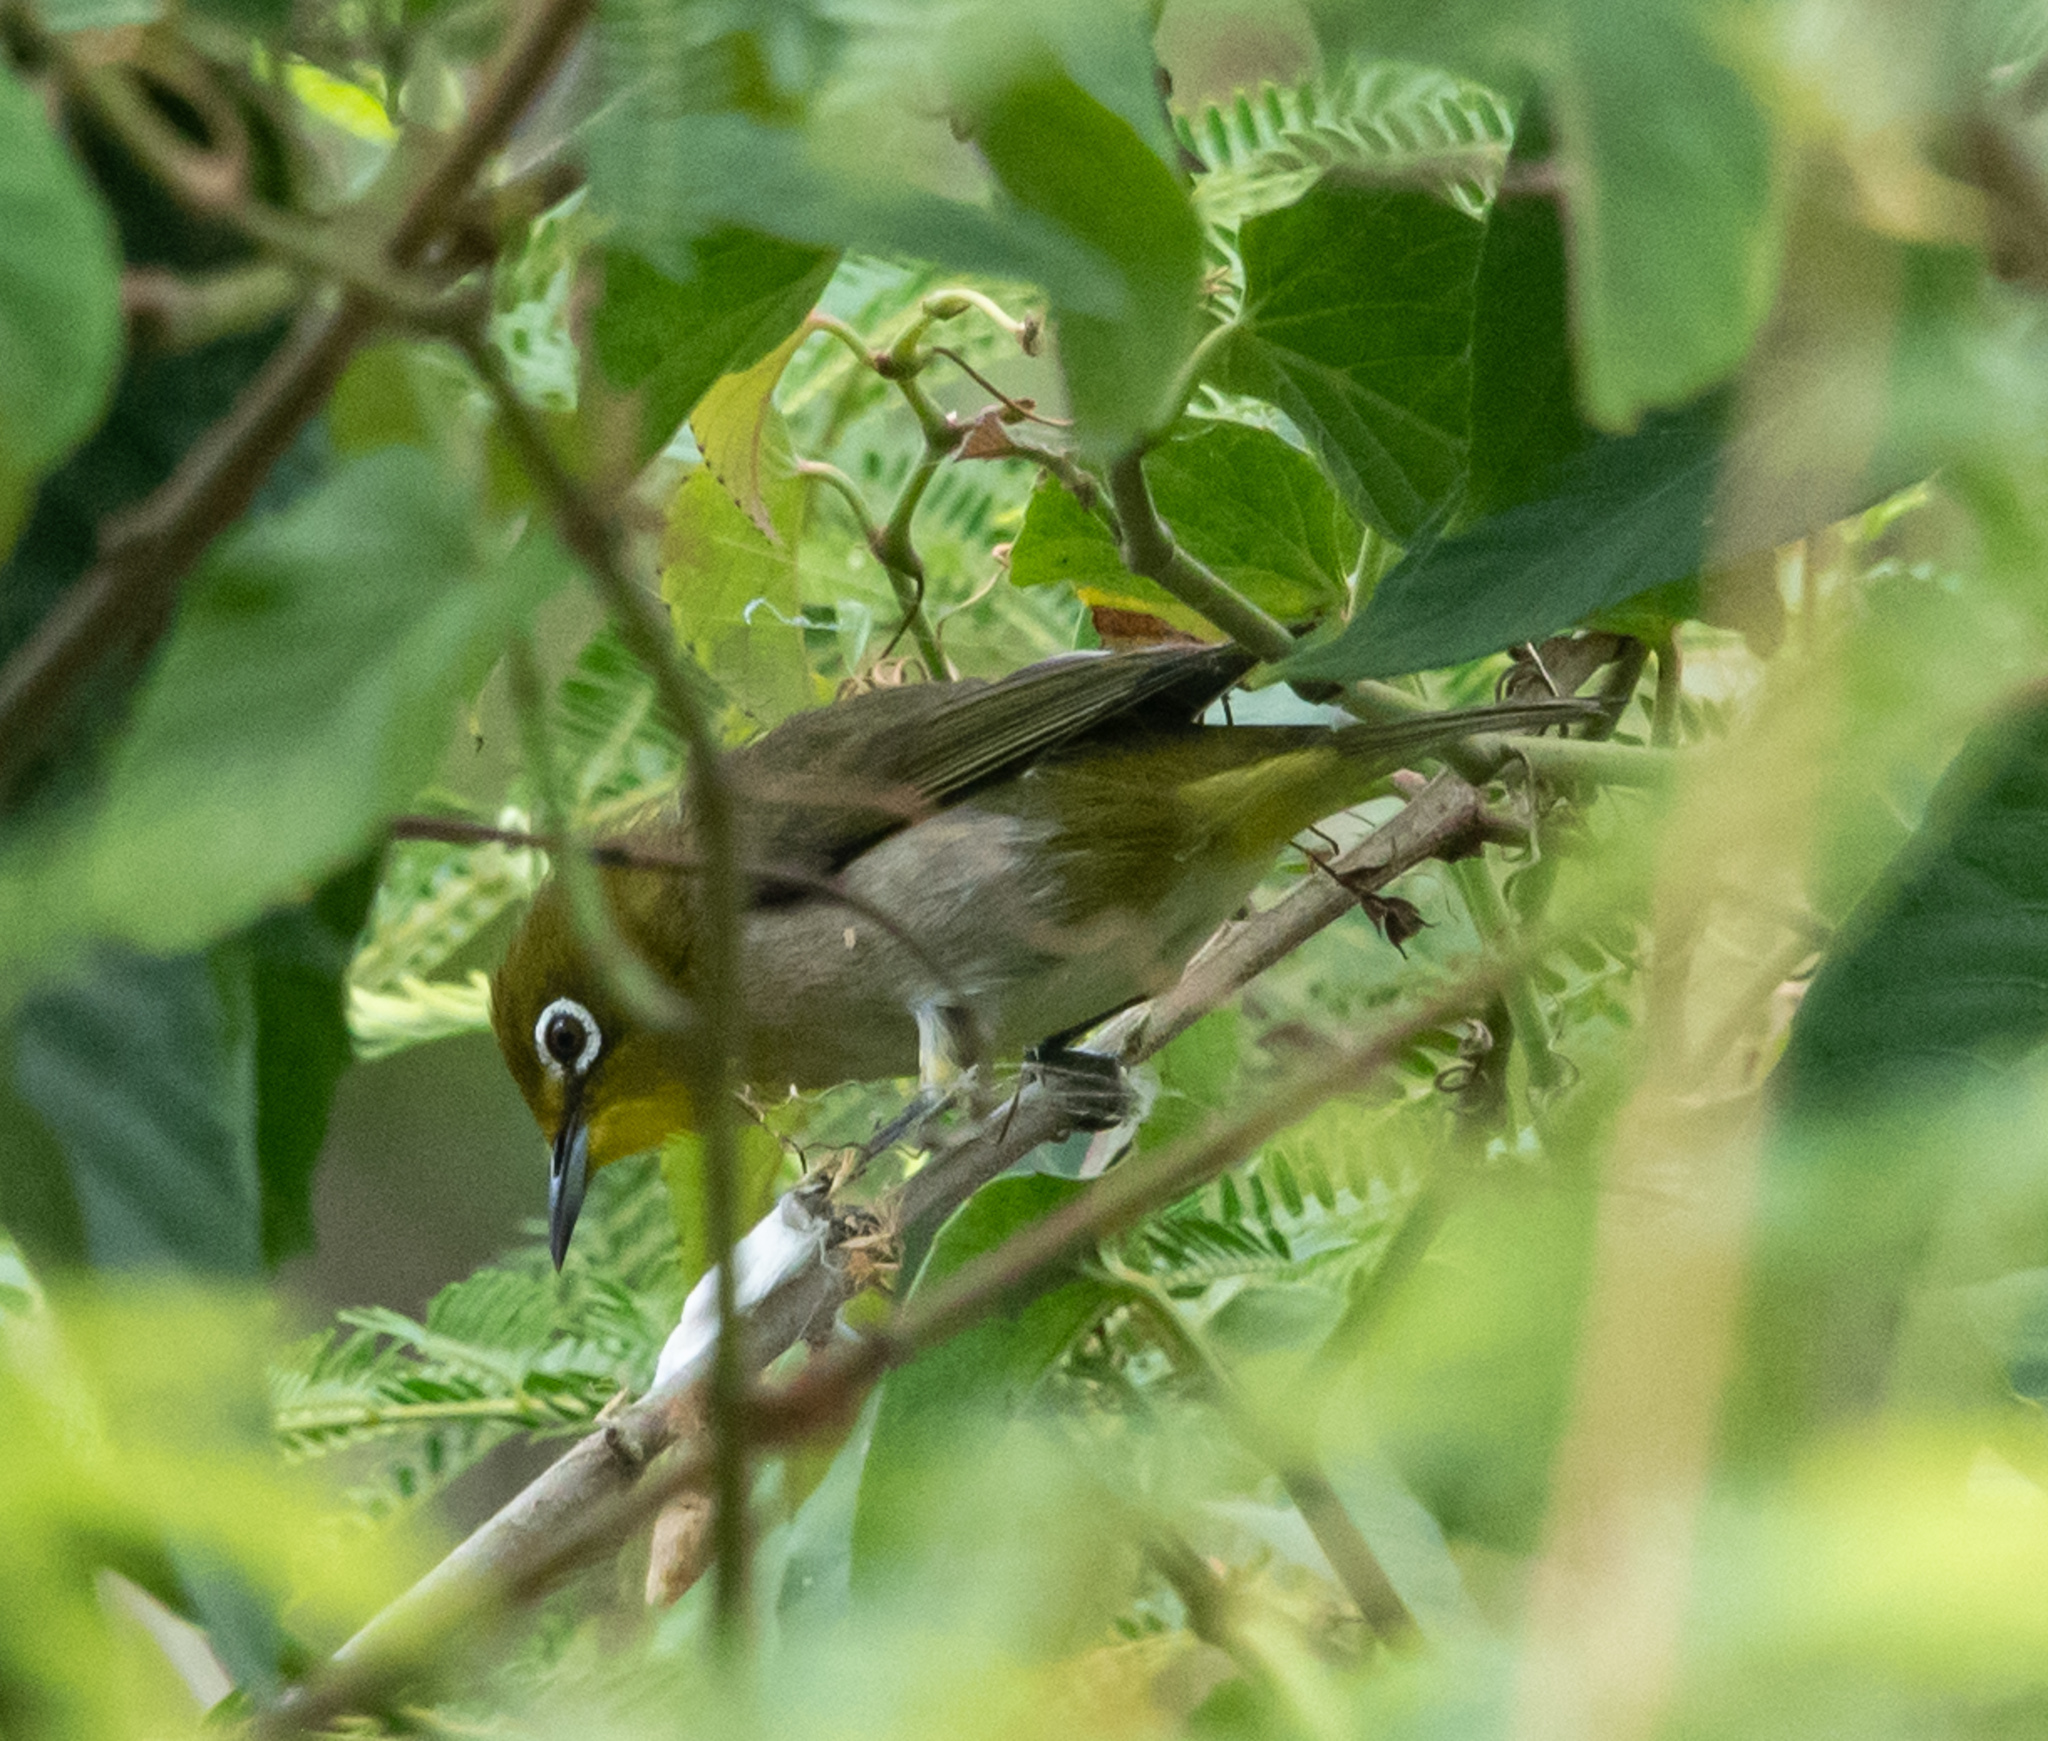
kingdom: Animalia
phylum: Chordata
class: Aves
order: Passeriformes
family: Zosteropidae
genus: Zosterops
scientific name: Zosterops japonicus
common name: Japanese white-eye
